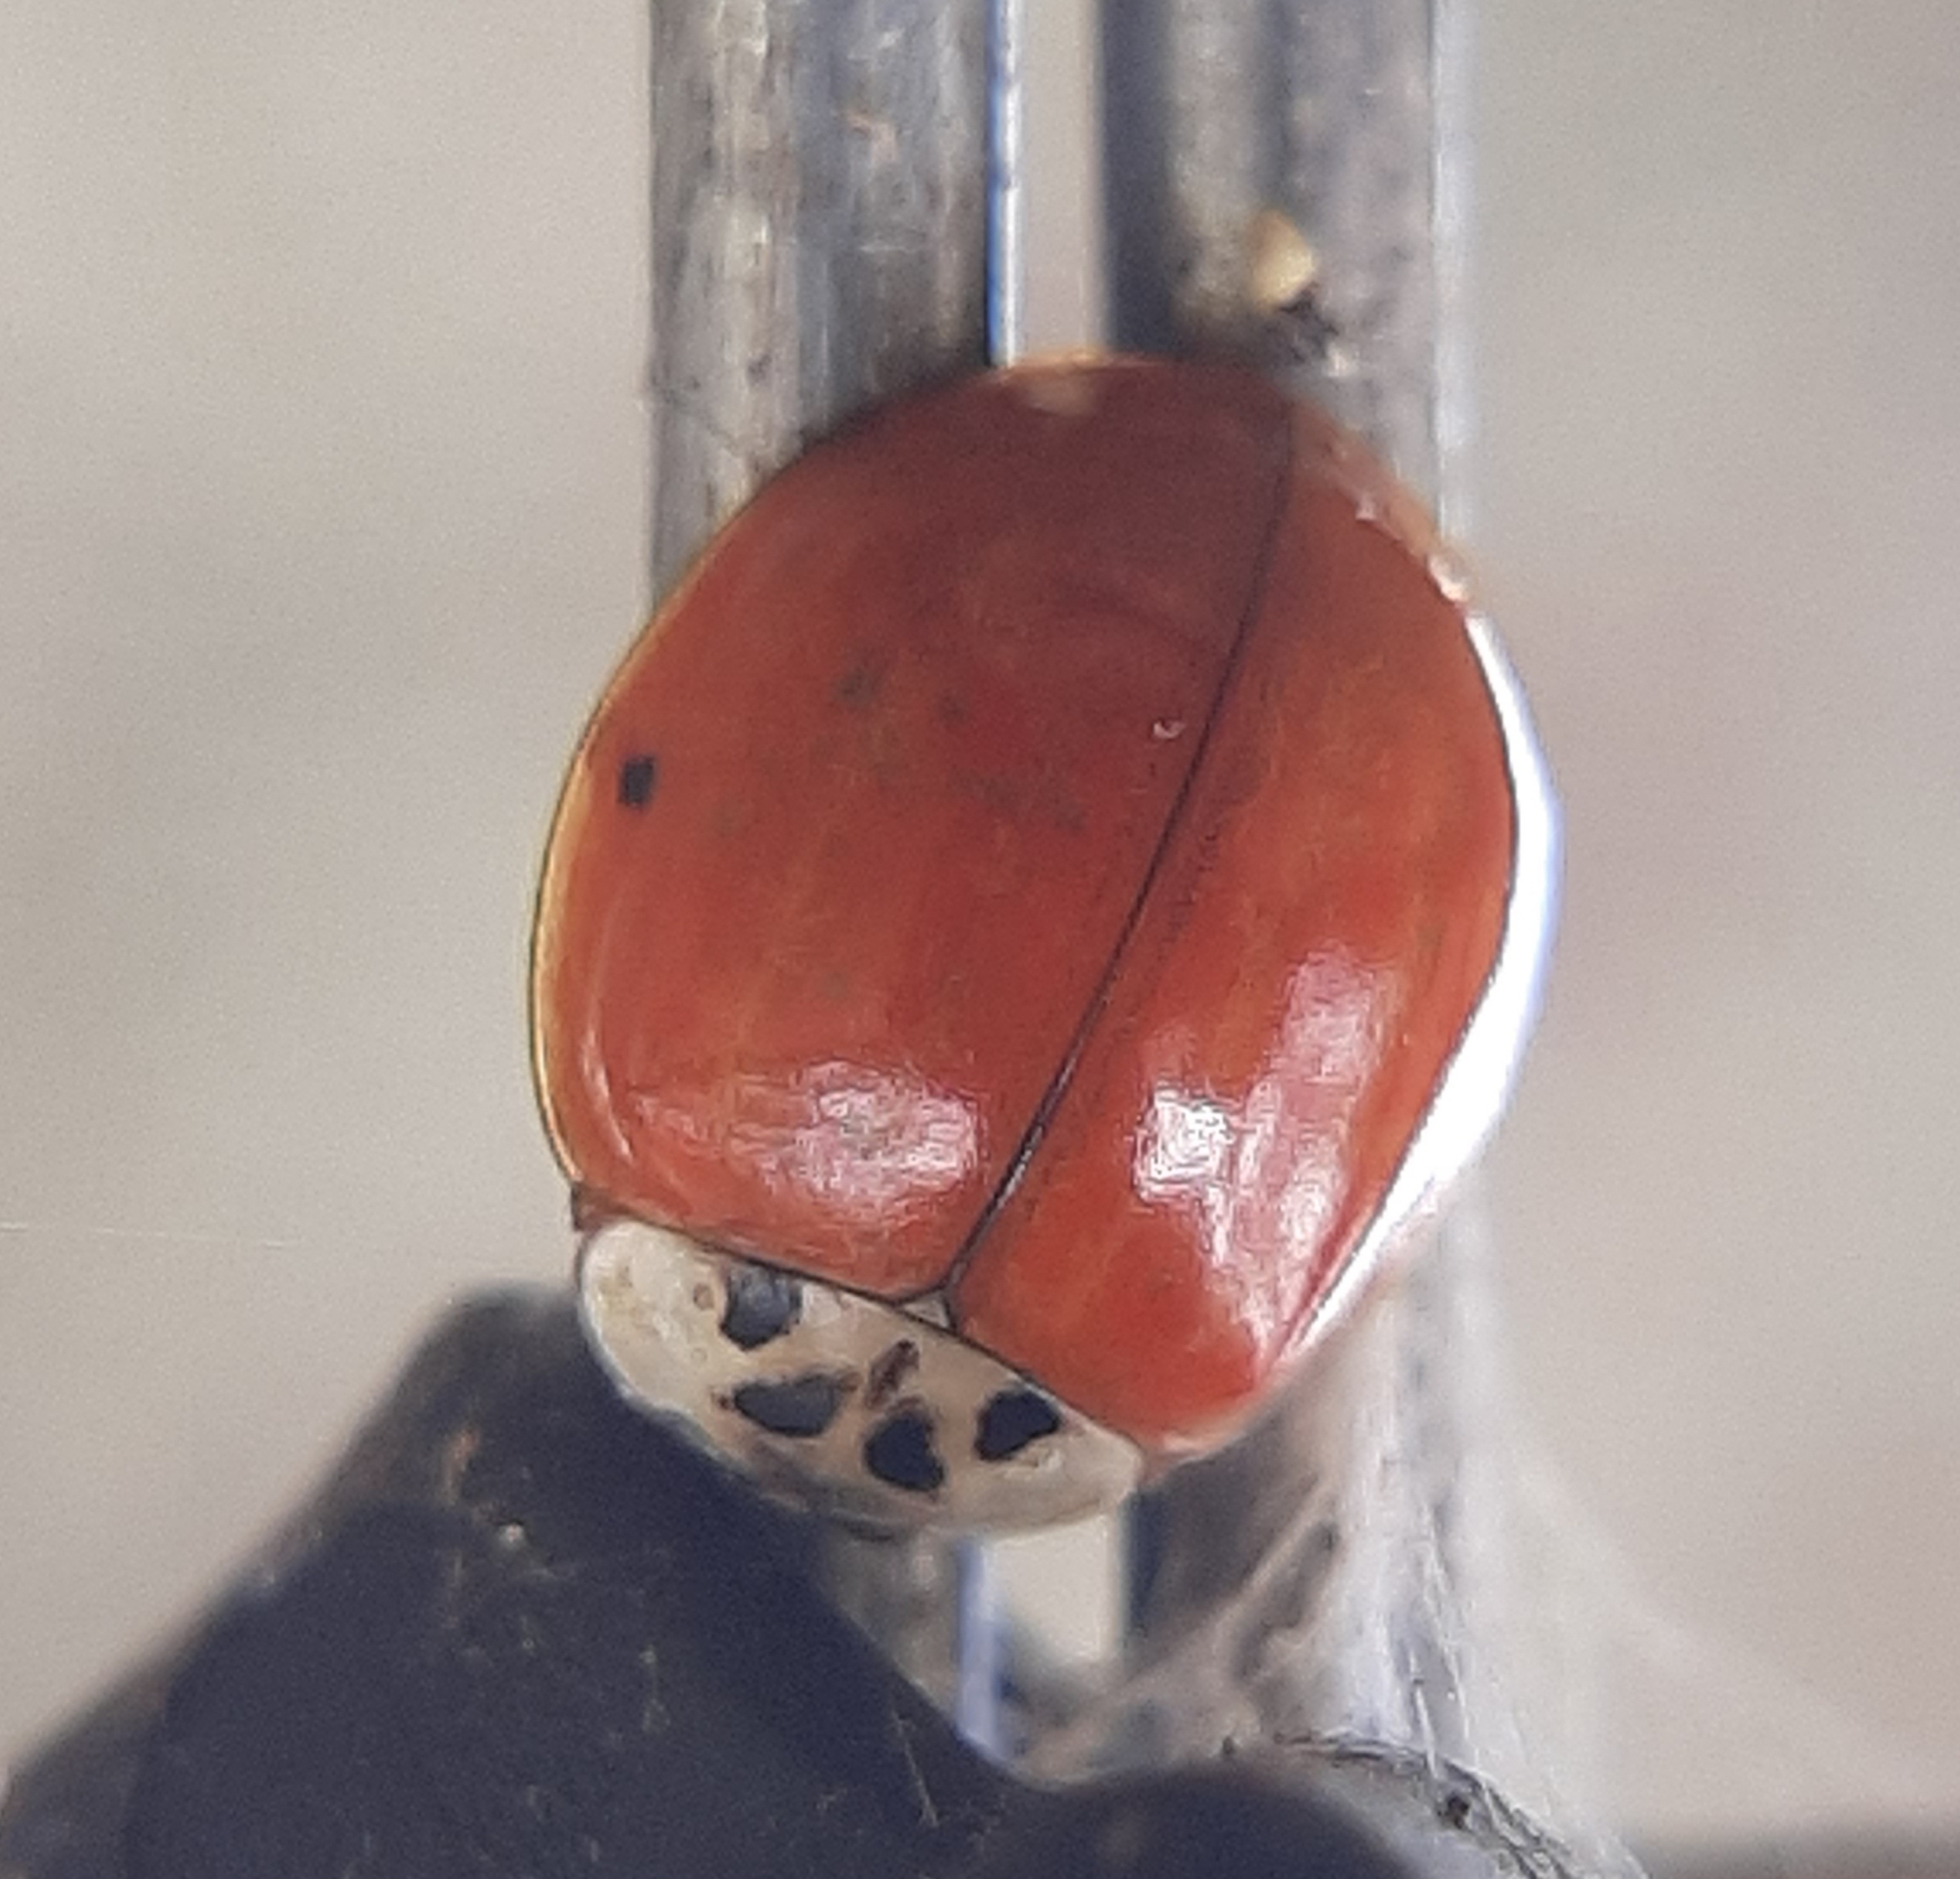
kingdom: Animalia
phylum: Arthropoda
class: Insecta
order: Coleoptera
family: Coccinellidae
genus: Harmonia
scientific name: Harmonia axyridis
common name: Harlequin ladybird
